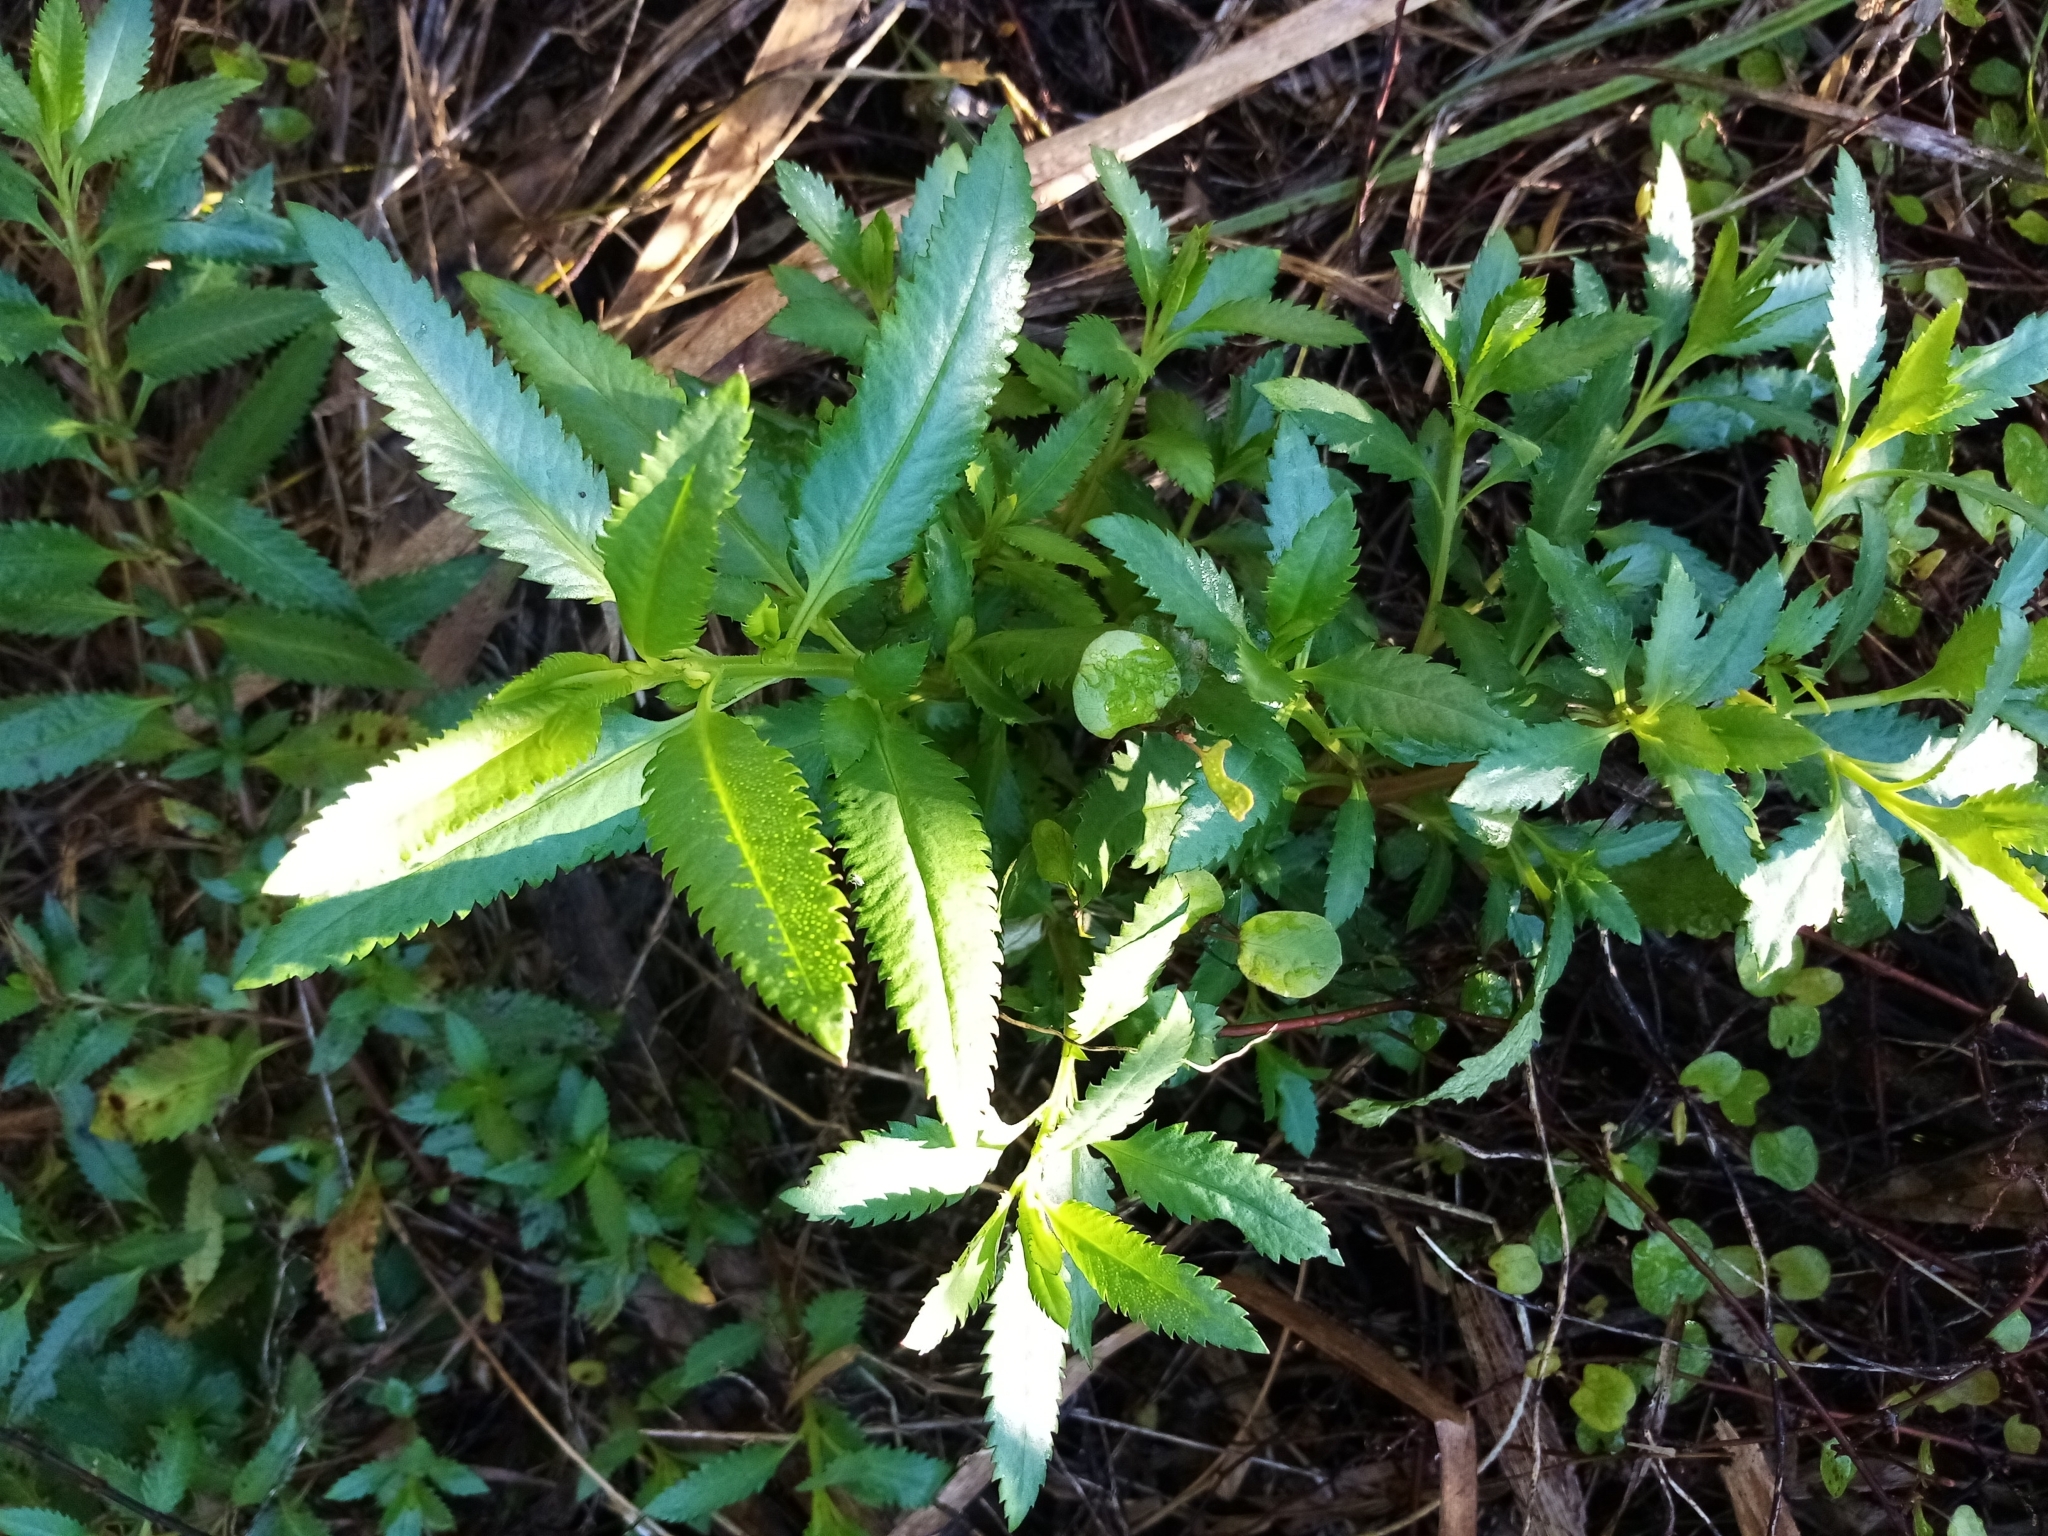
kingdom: Plantae
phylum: Tracheophyta
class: Magnoliopsida
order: Saxifragales
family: Haloragaceae
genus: Haloragis
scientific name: Haloragis erecta
